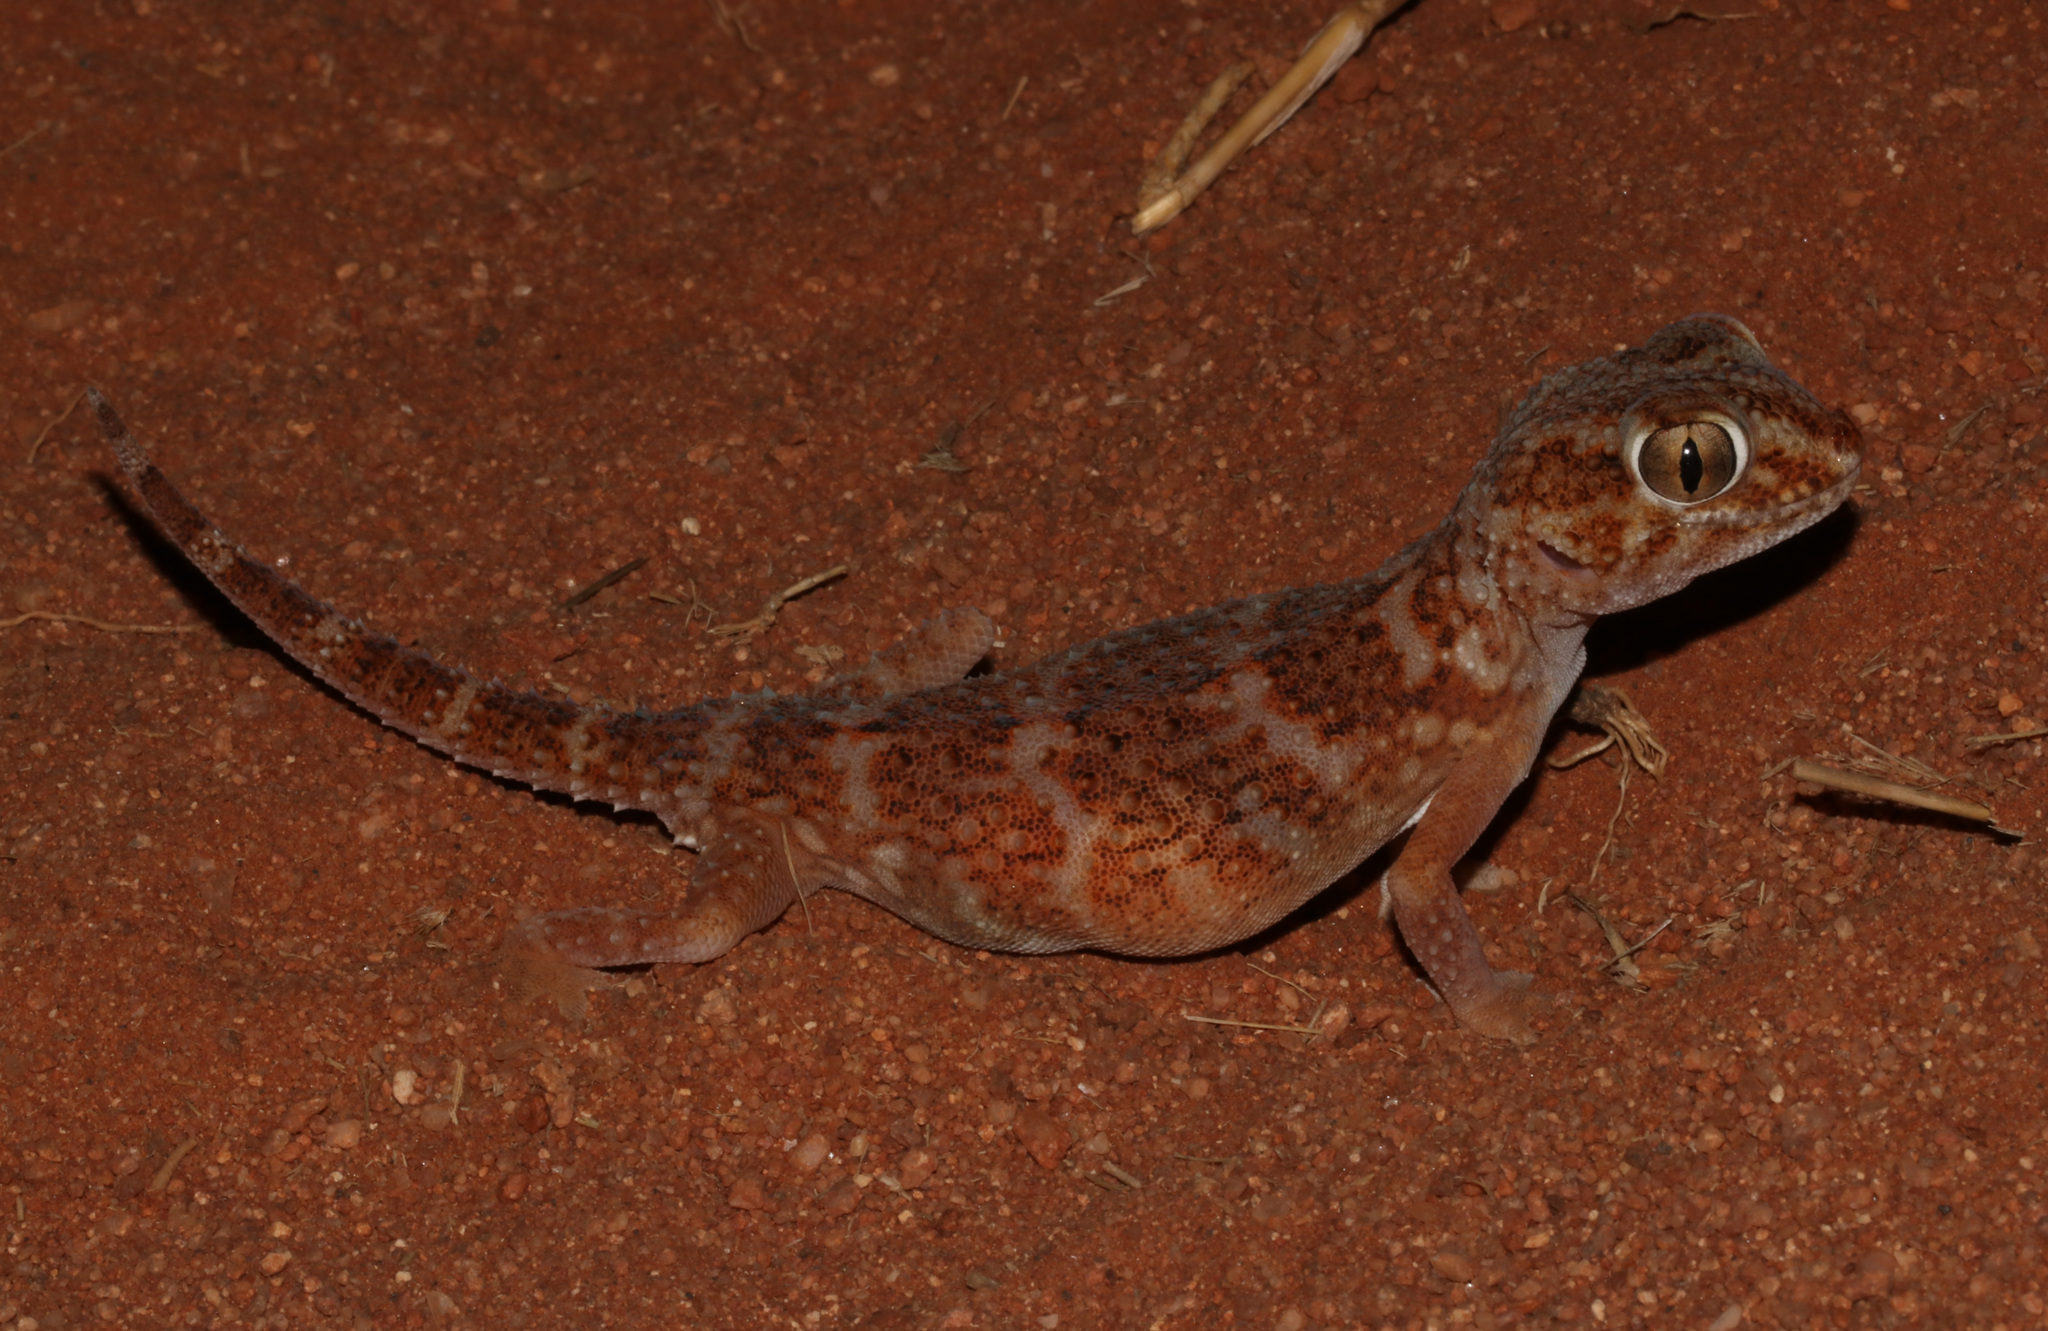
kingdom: Animalia
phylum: Chordata
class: Squamata
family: Gekkonidae
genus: Chondrodactylus
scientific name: Chondrodactylus angulifer
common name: Common giant ground gecko
